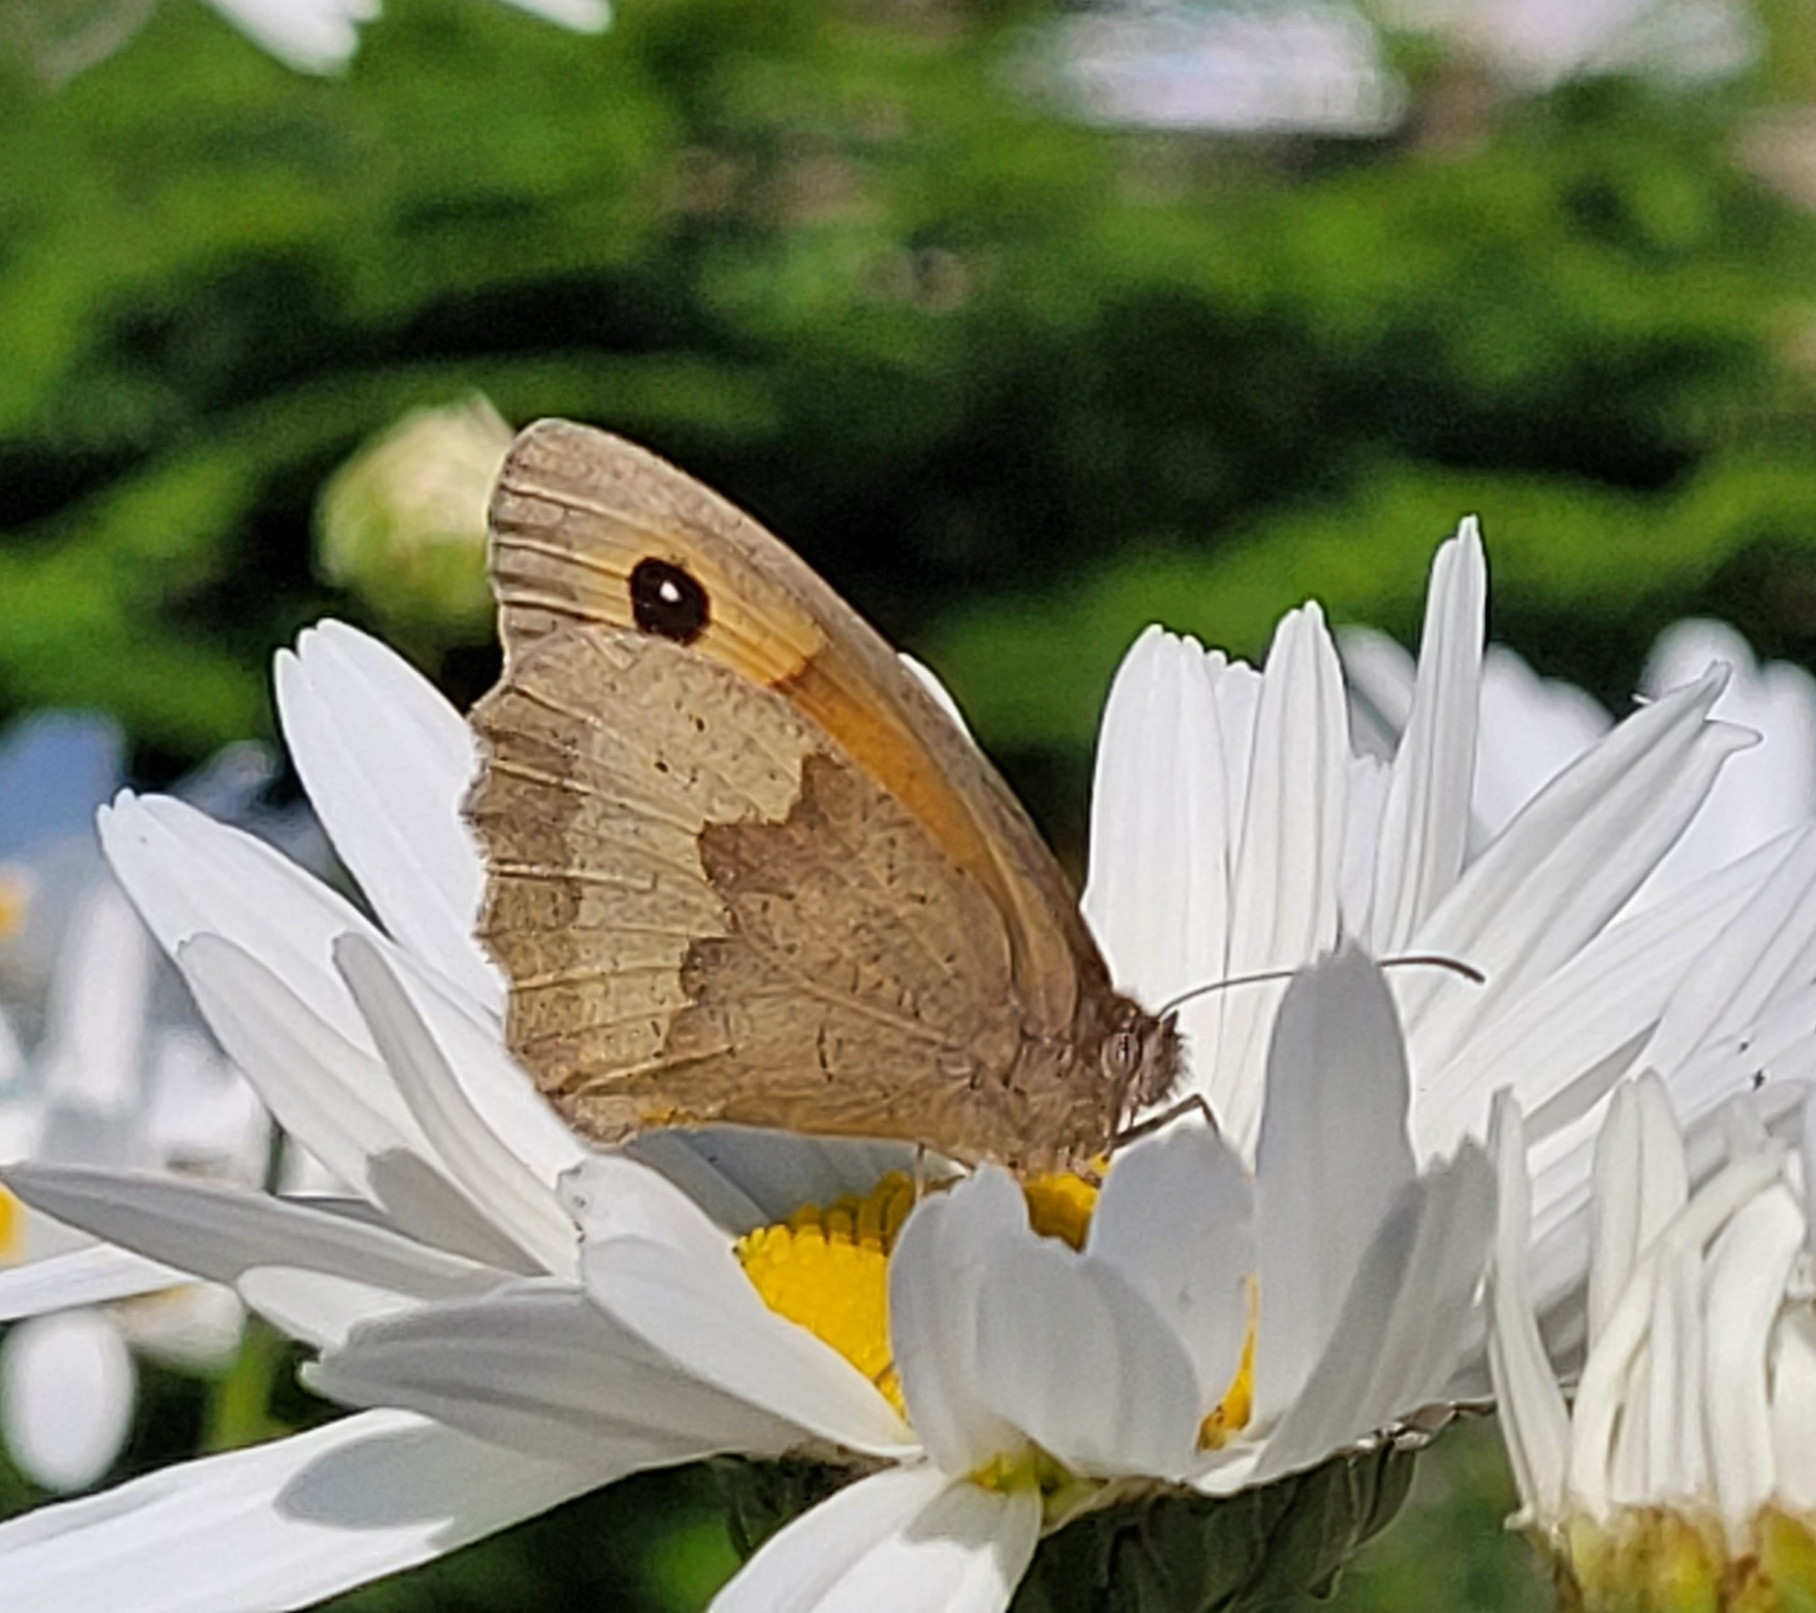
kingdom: Animalia
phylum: Arthropoda
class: Insecta
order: Lepidoptera
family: Nymphalidae
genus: Maniola
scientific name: Maniola jurtina
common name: Meadow brown
